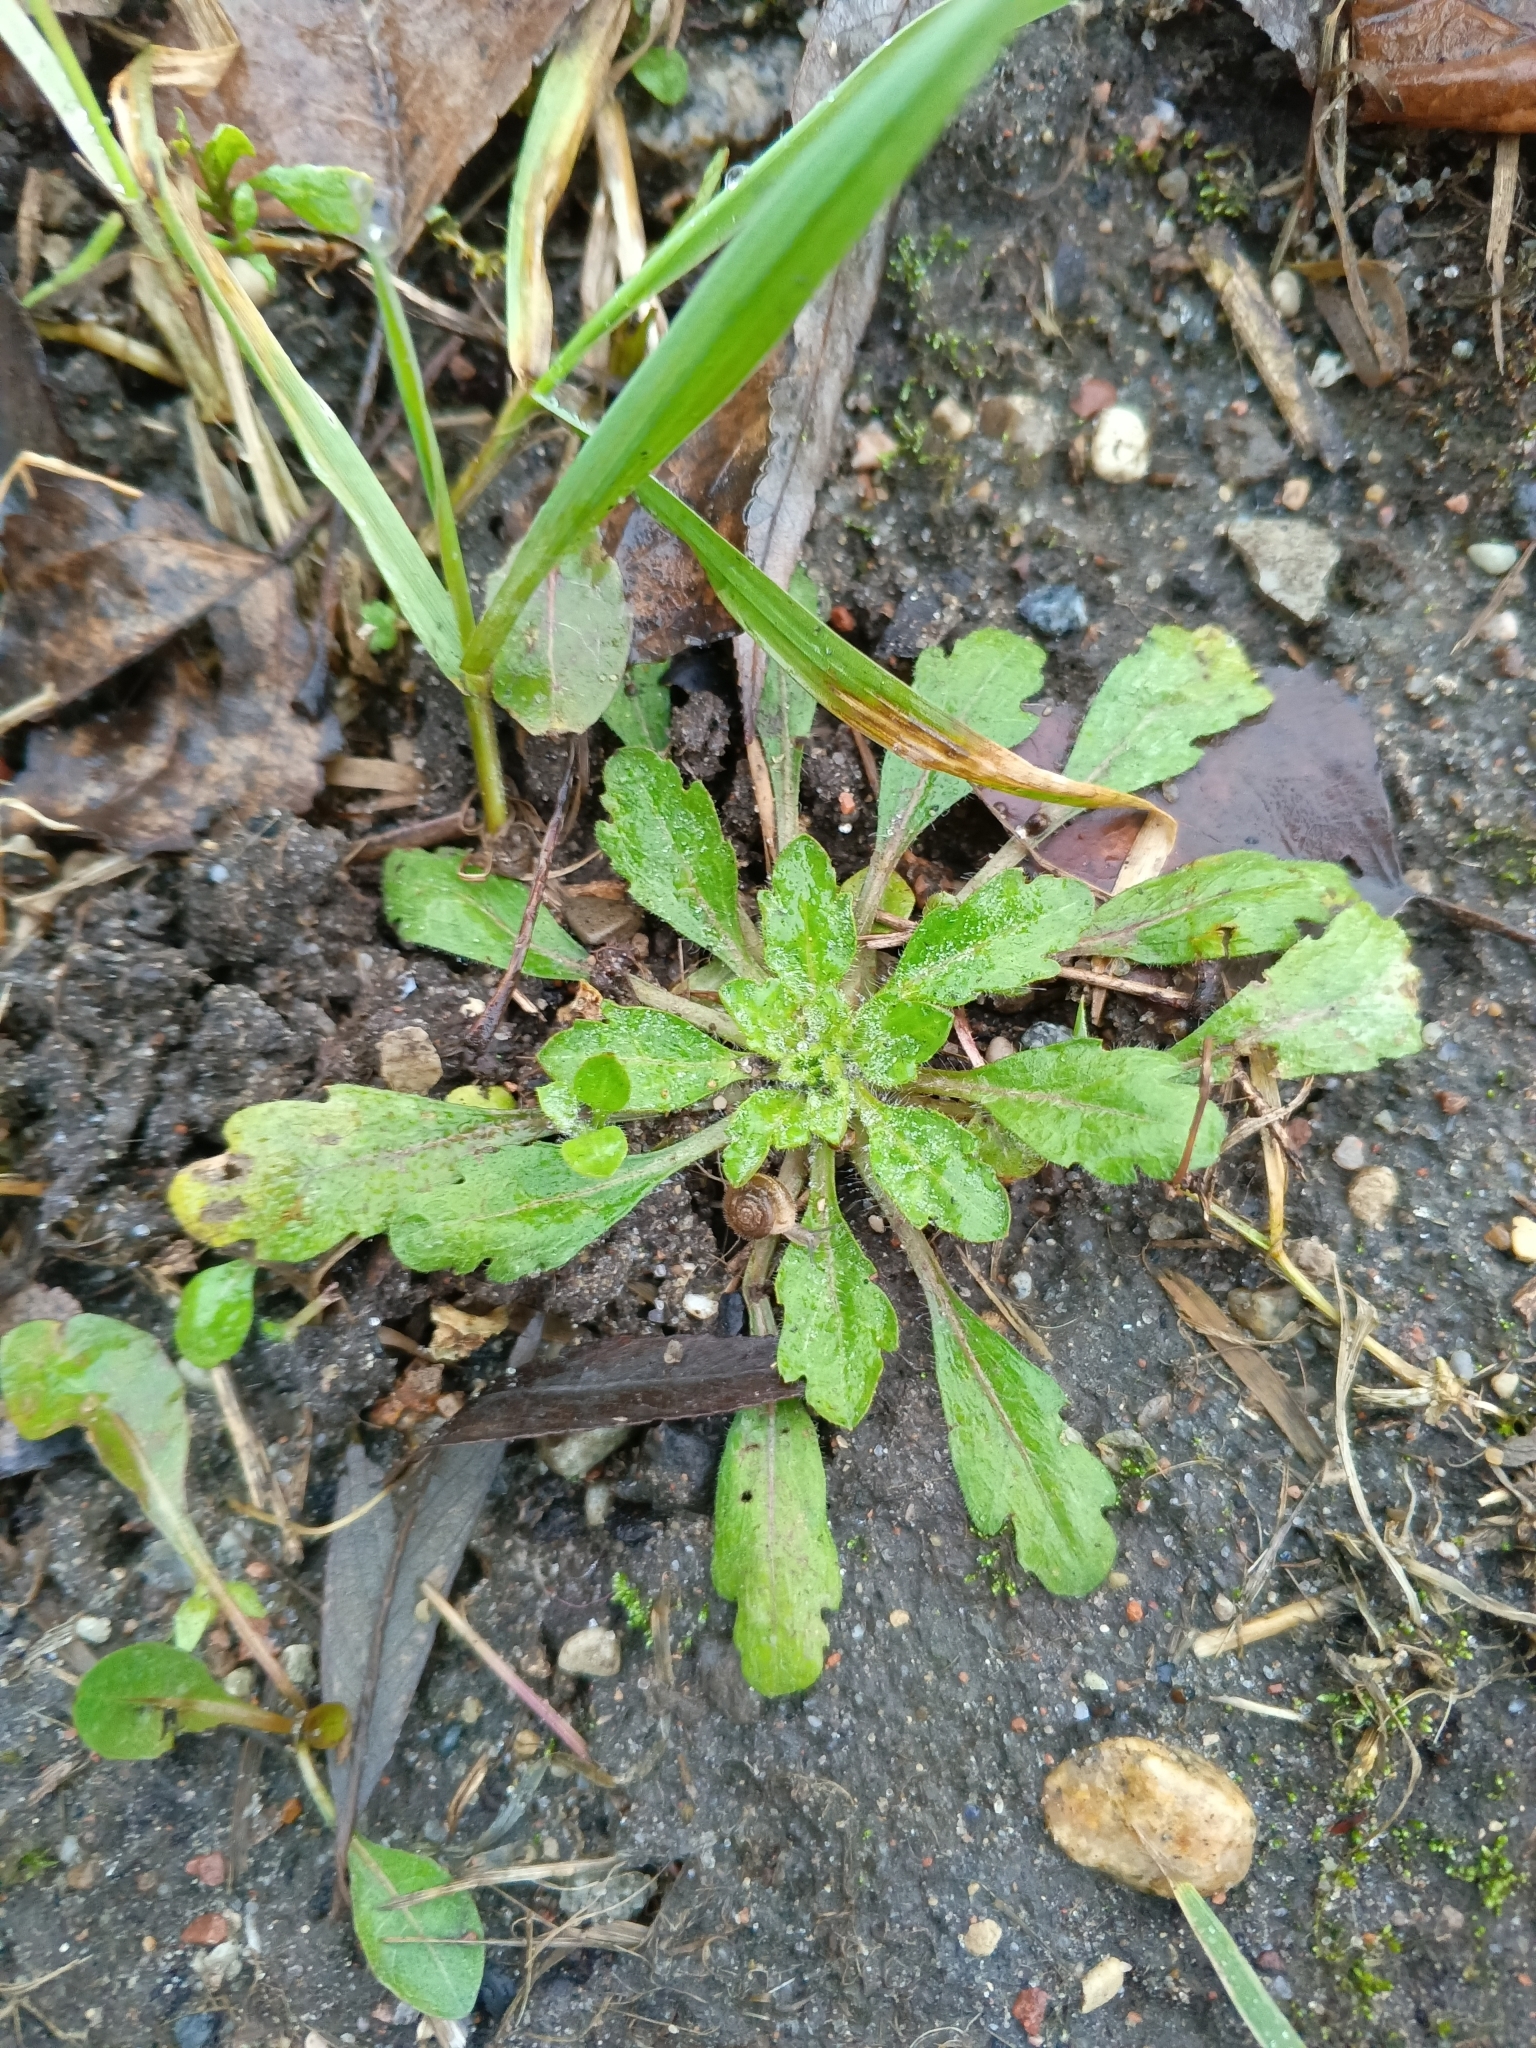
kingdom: Plantae
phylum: Tracheophyta
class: Magnoliopsida
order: Asterales
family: Asteraceae
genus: Erigeron
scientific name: Erigeron canadensis
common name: Canadian fleabane
